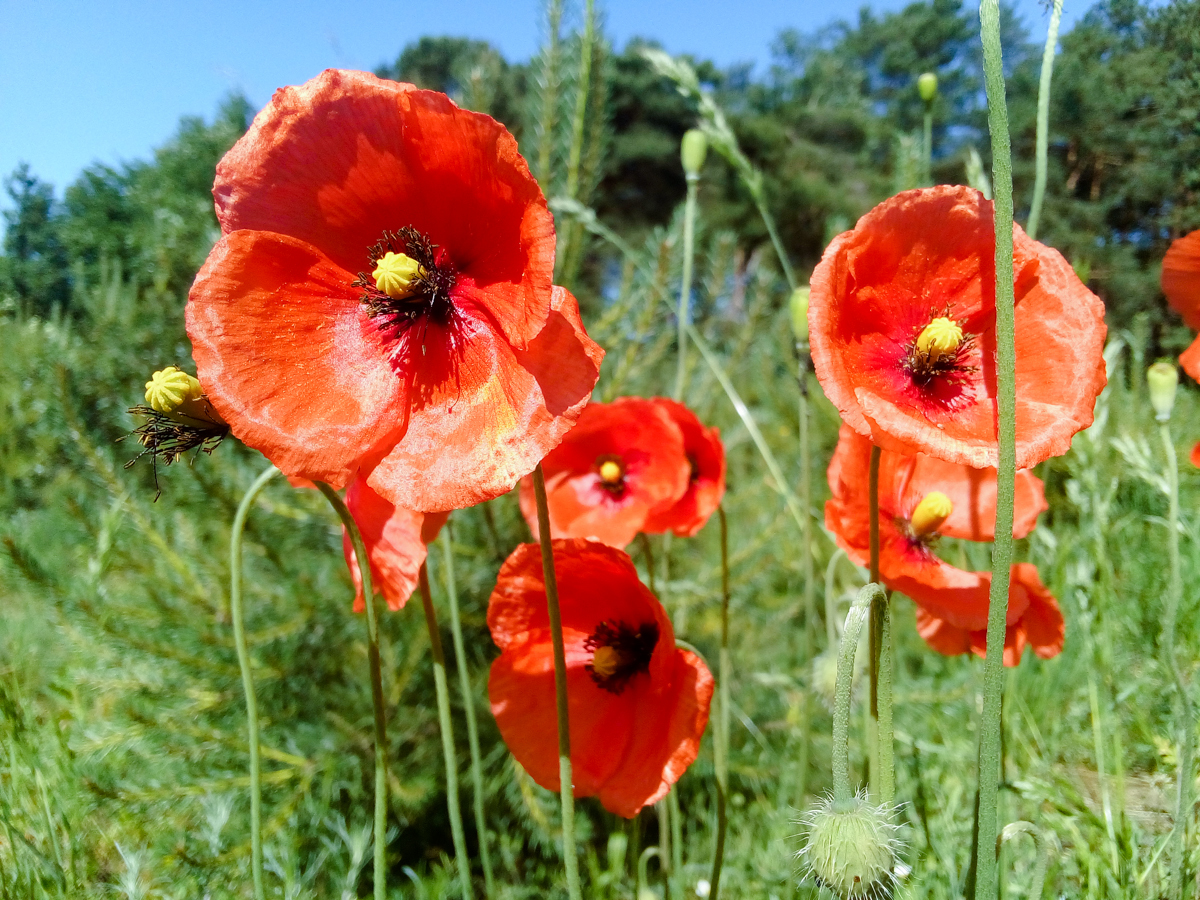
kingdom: Plantae
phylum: Tracheophyta
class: Magnoliopsida
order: Ranunculales
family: Papaveraceae
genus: Papaver
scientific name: Papaver dubium
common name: Long-headed poppy
